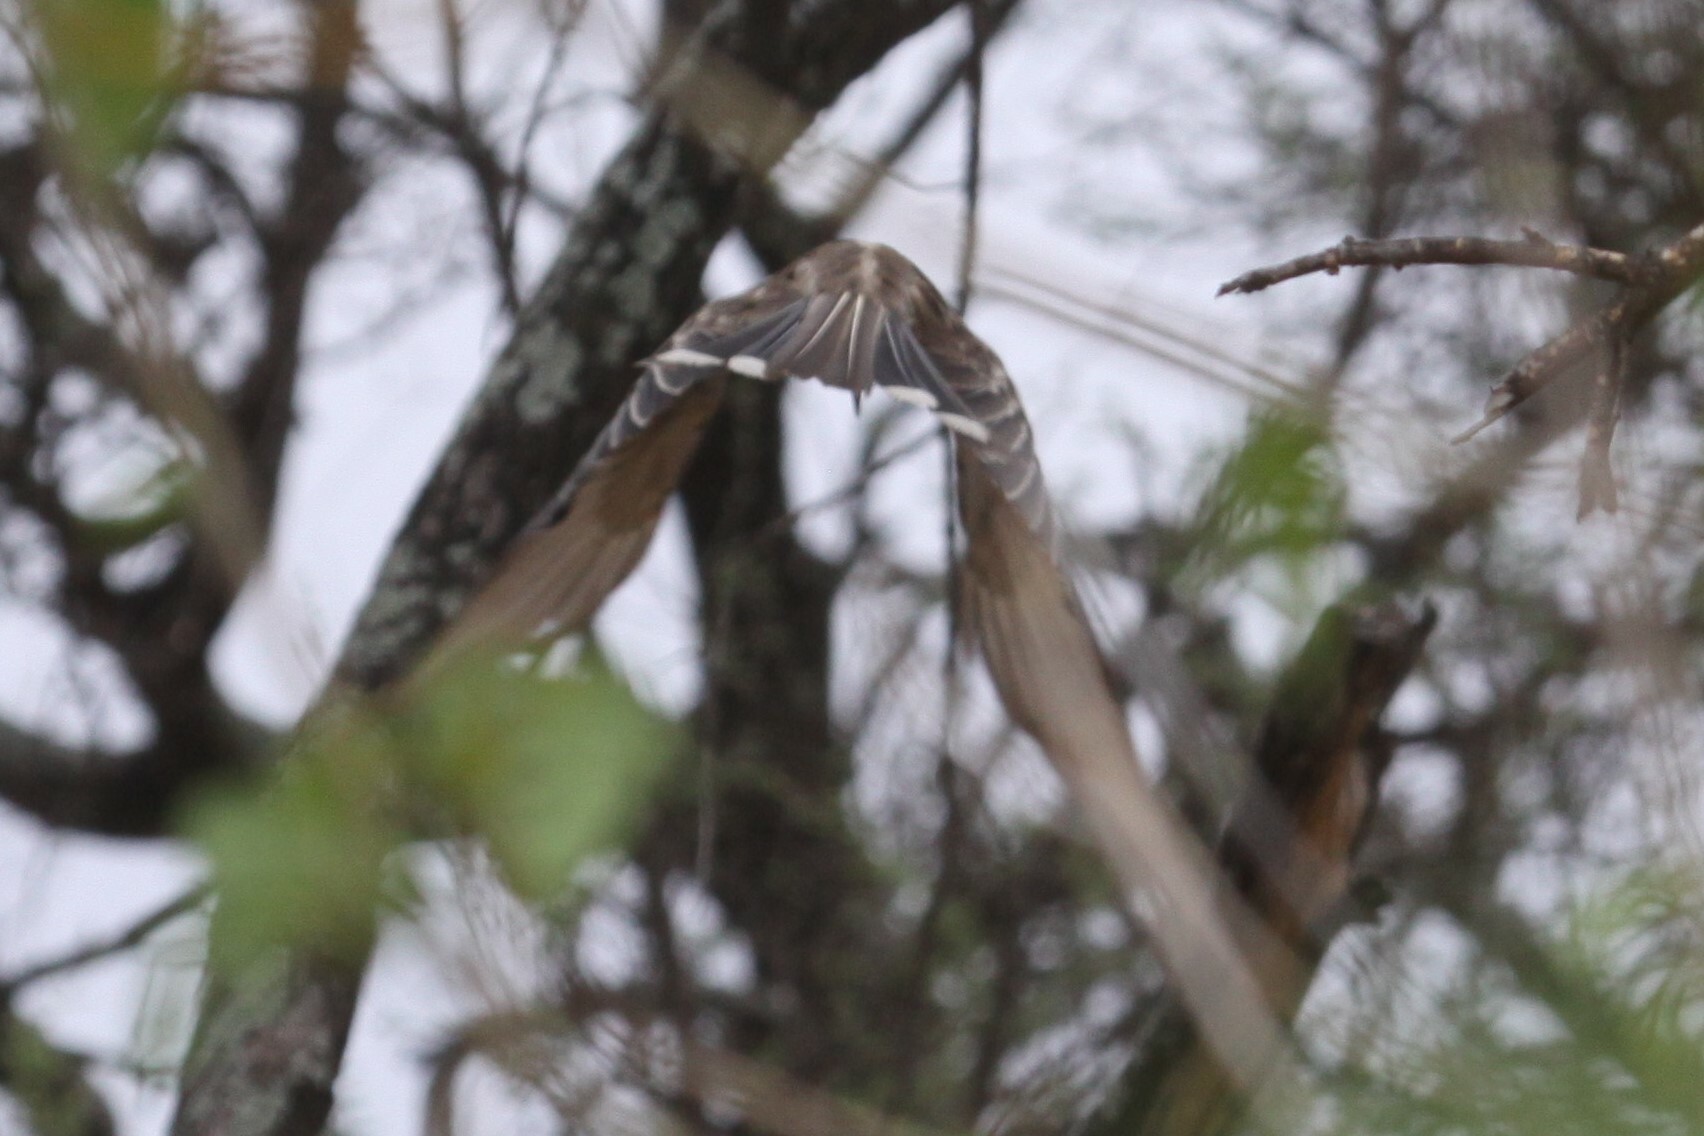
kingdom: Animalia
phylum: Chordata
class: Aves
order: Bucerotiformes
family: Bucerotidae
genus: Lophoceros
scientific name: Lophoceros nasutus
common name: African grey hornbill
